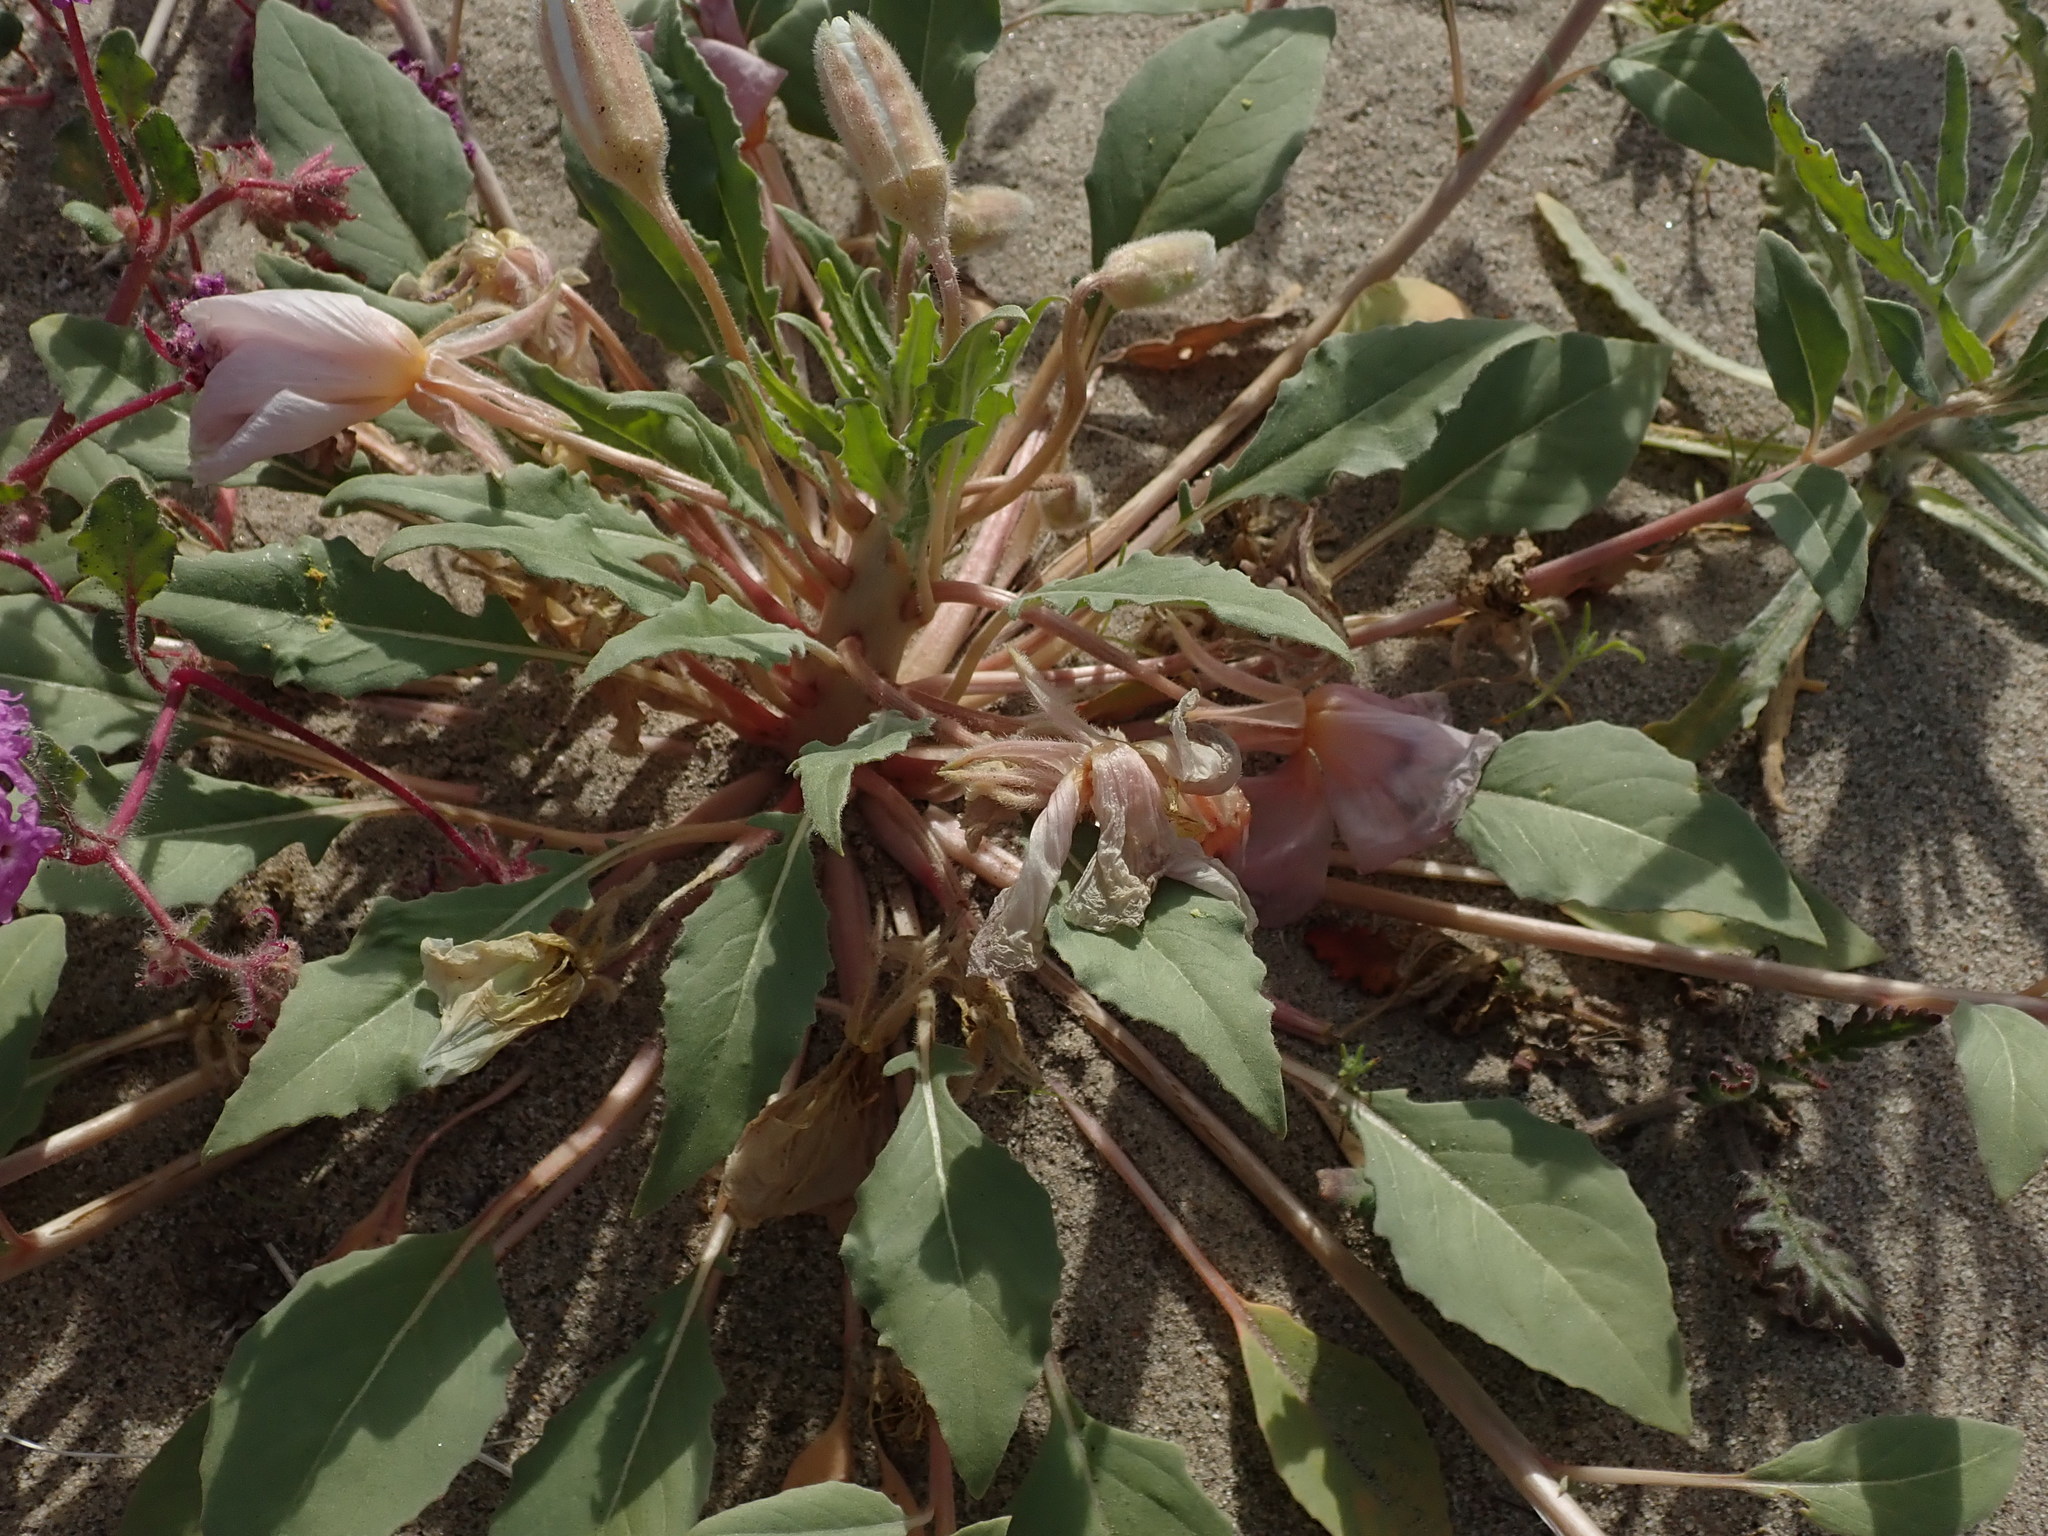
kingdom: Plantae
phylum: Tracheophyta
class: Magnoliopsida
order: Myrtales
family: Onagraceae
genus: Oenothera
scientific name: Oenothera deltoides
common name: Basket evening-primrose
